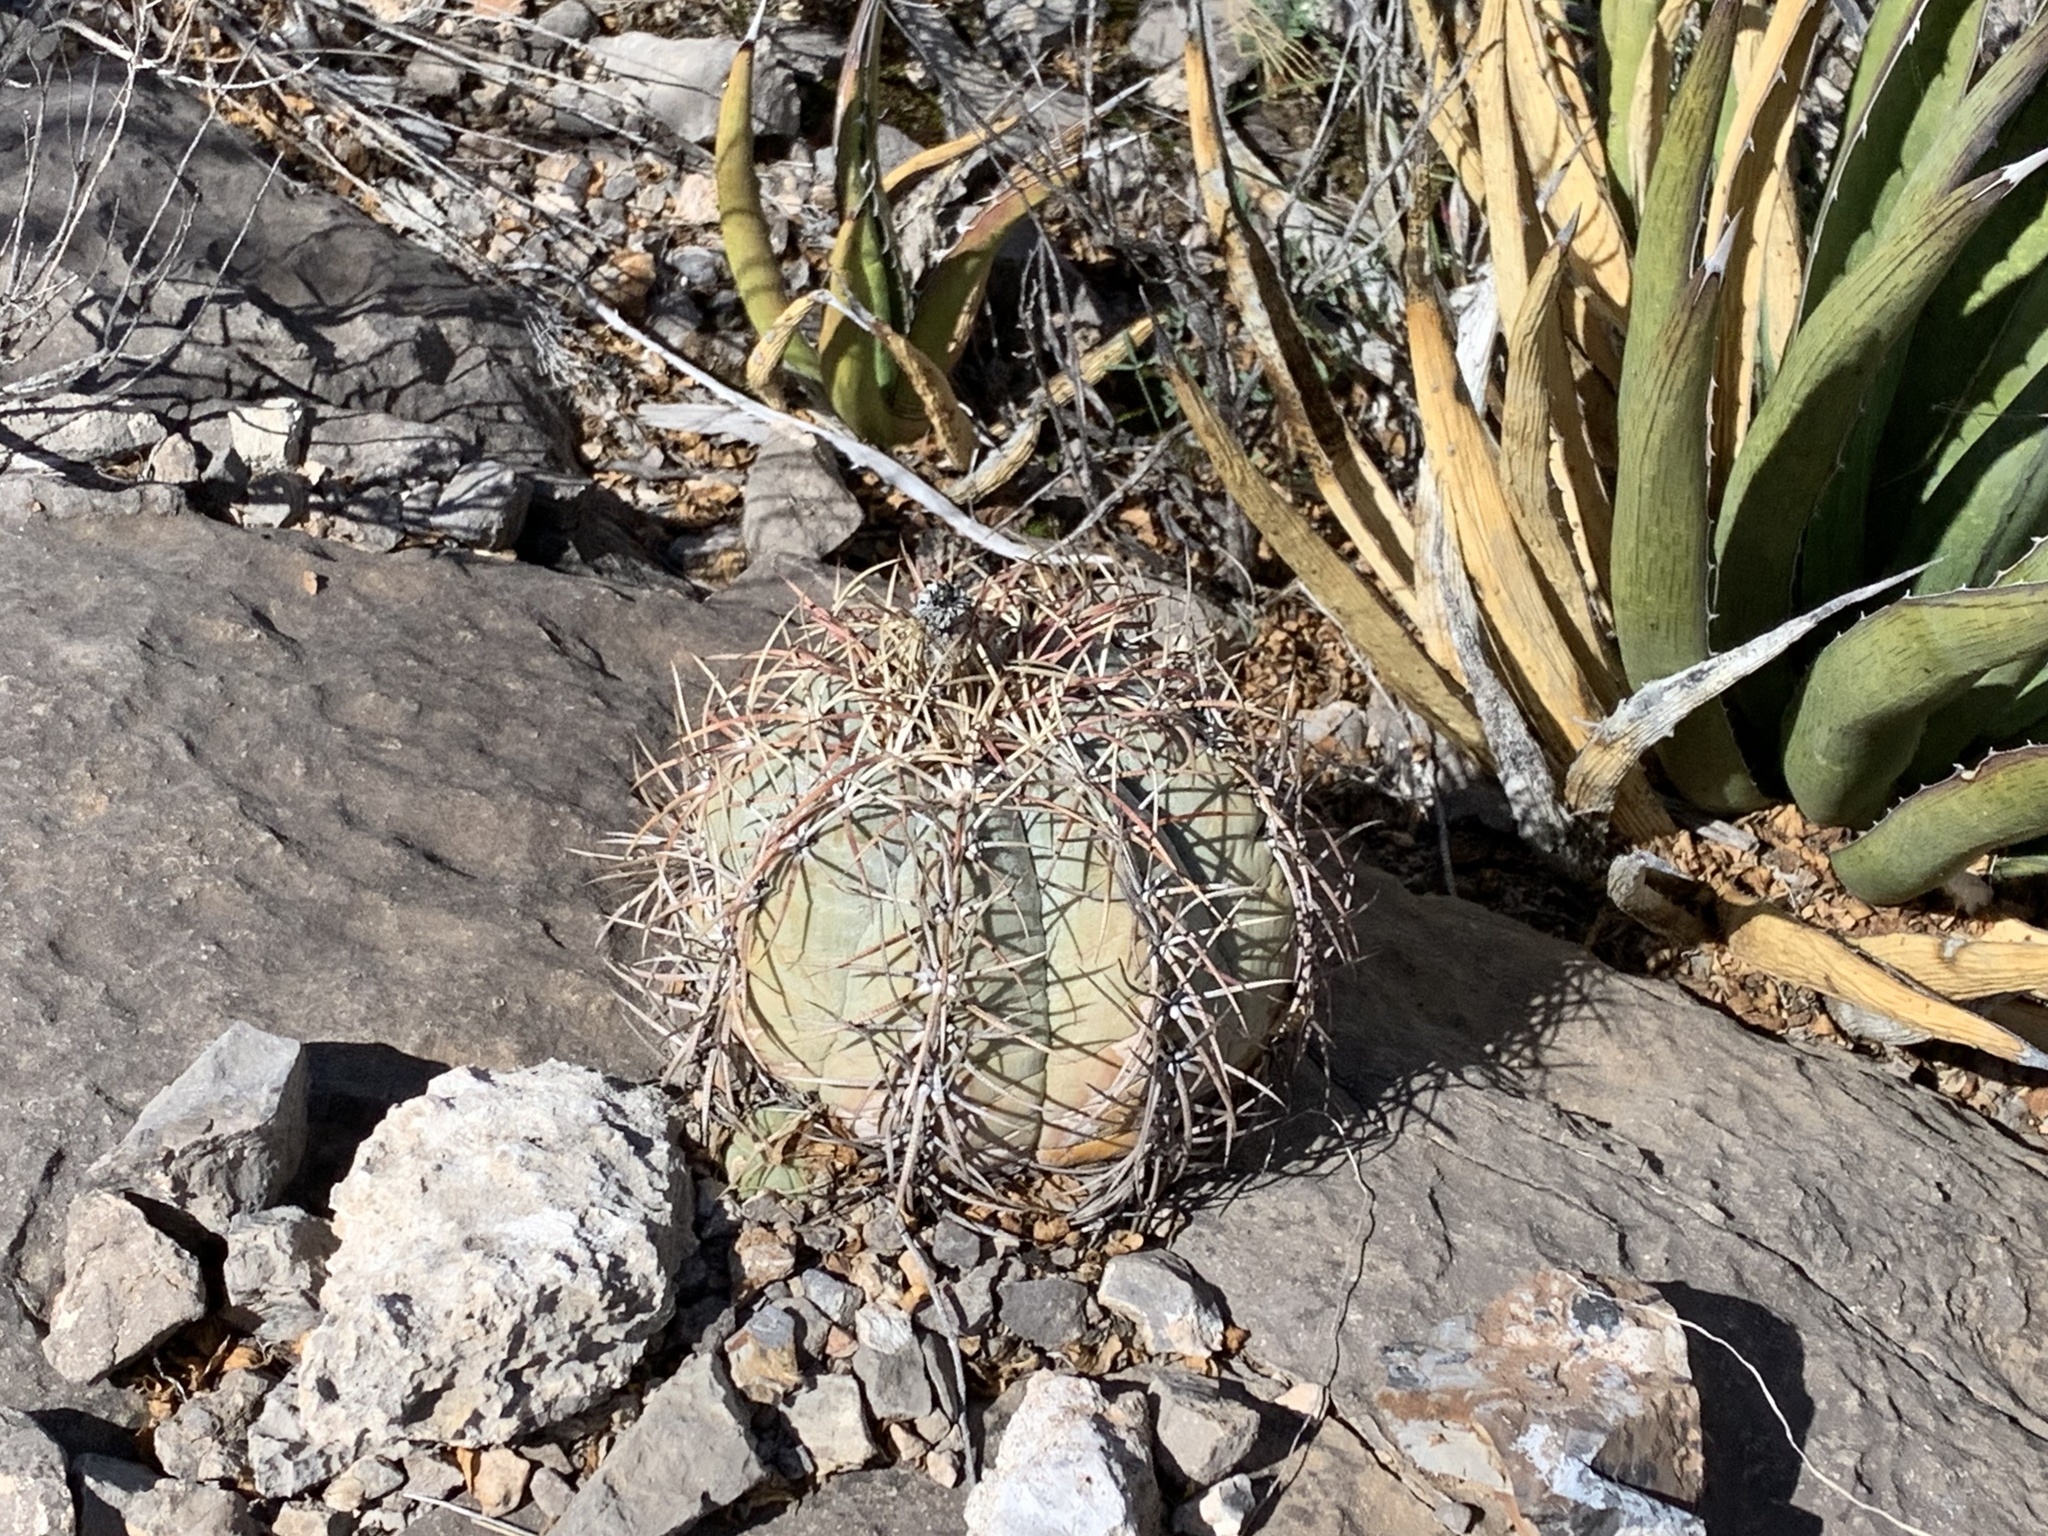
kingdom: Plantae
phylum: Tracheophyta
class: Magnoliopsida
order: Caryophyllales
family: Cactaceae
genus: Echinocactus
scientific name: Echinocactus horizonthalonius
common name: Devilshead
